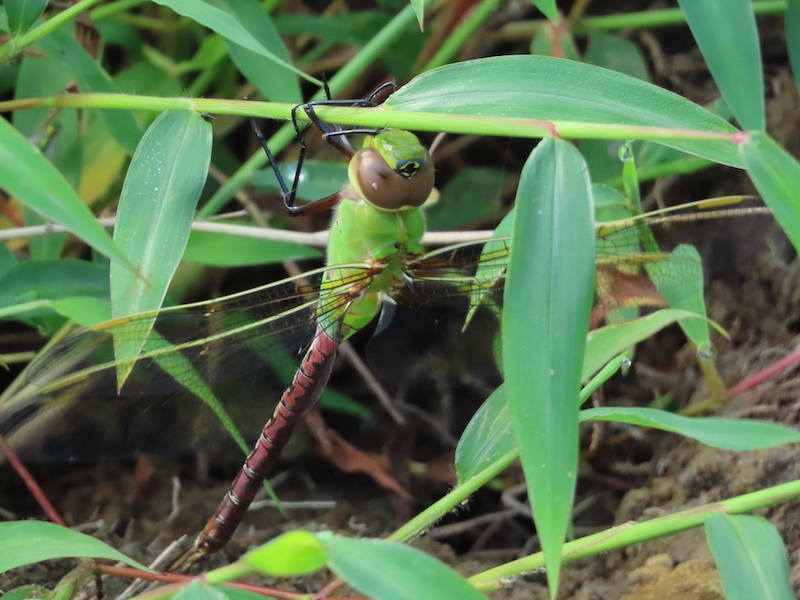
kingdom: Animalia
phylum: Arthropoda
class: Insecta
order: Odonata
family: Aeshnidae
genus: Anax
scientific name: Anax junius
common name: Common green darner
